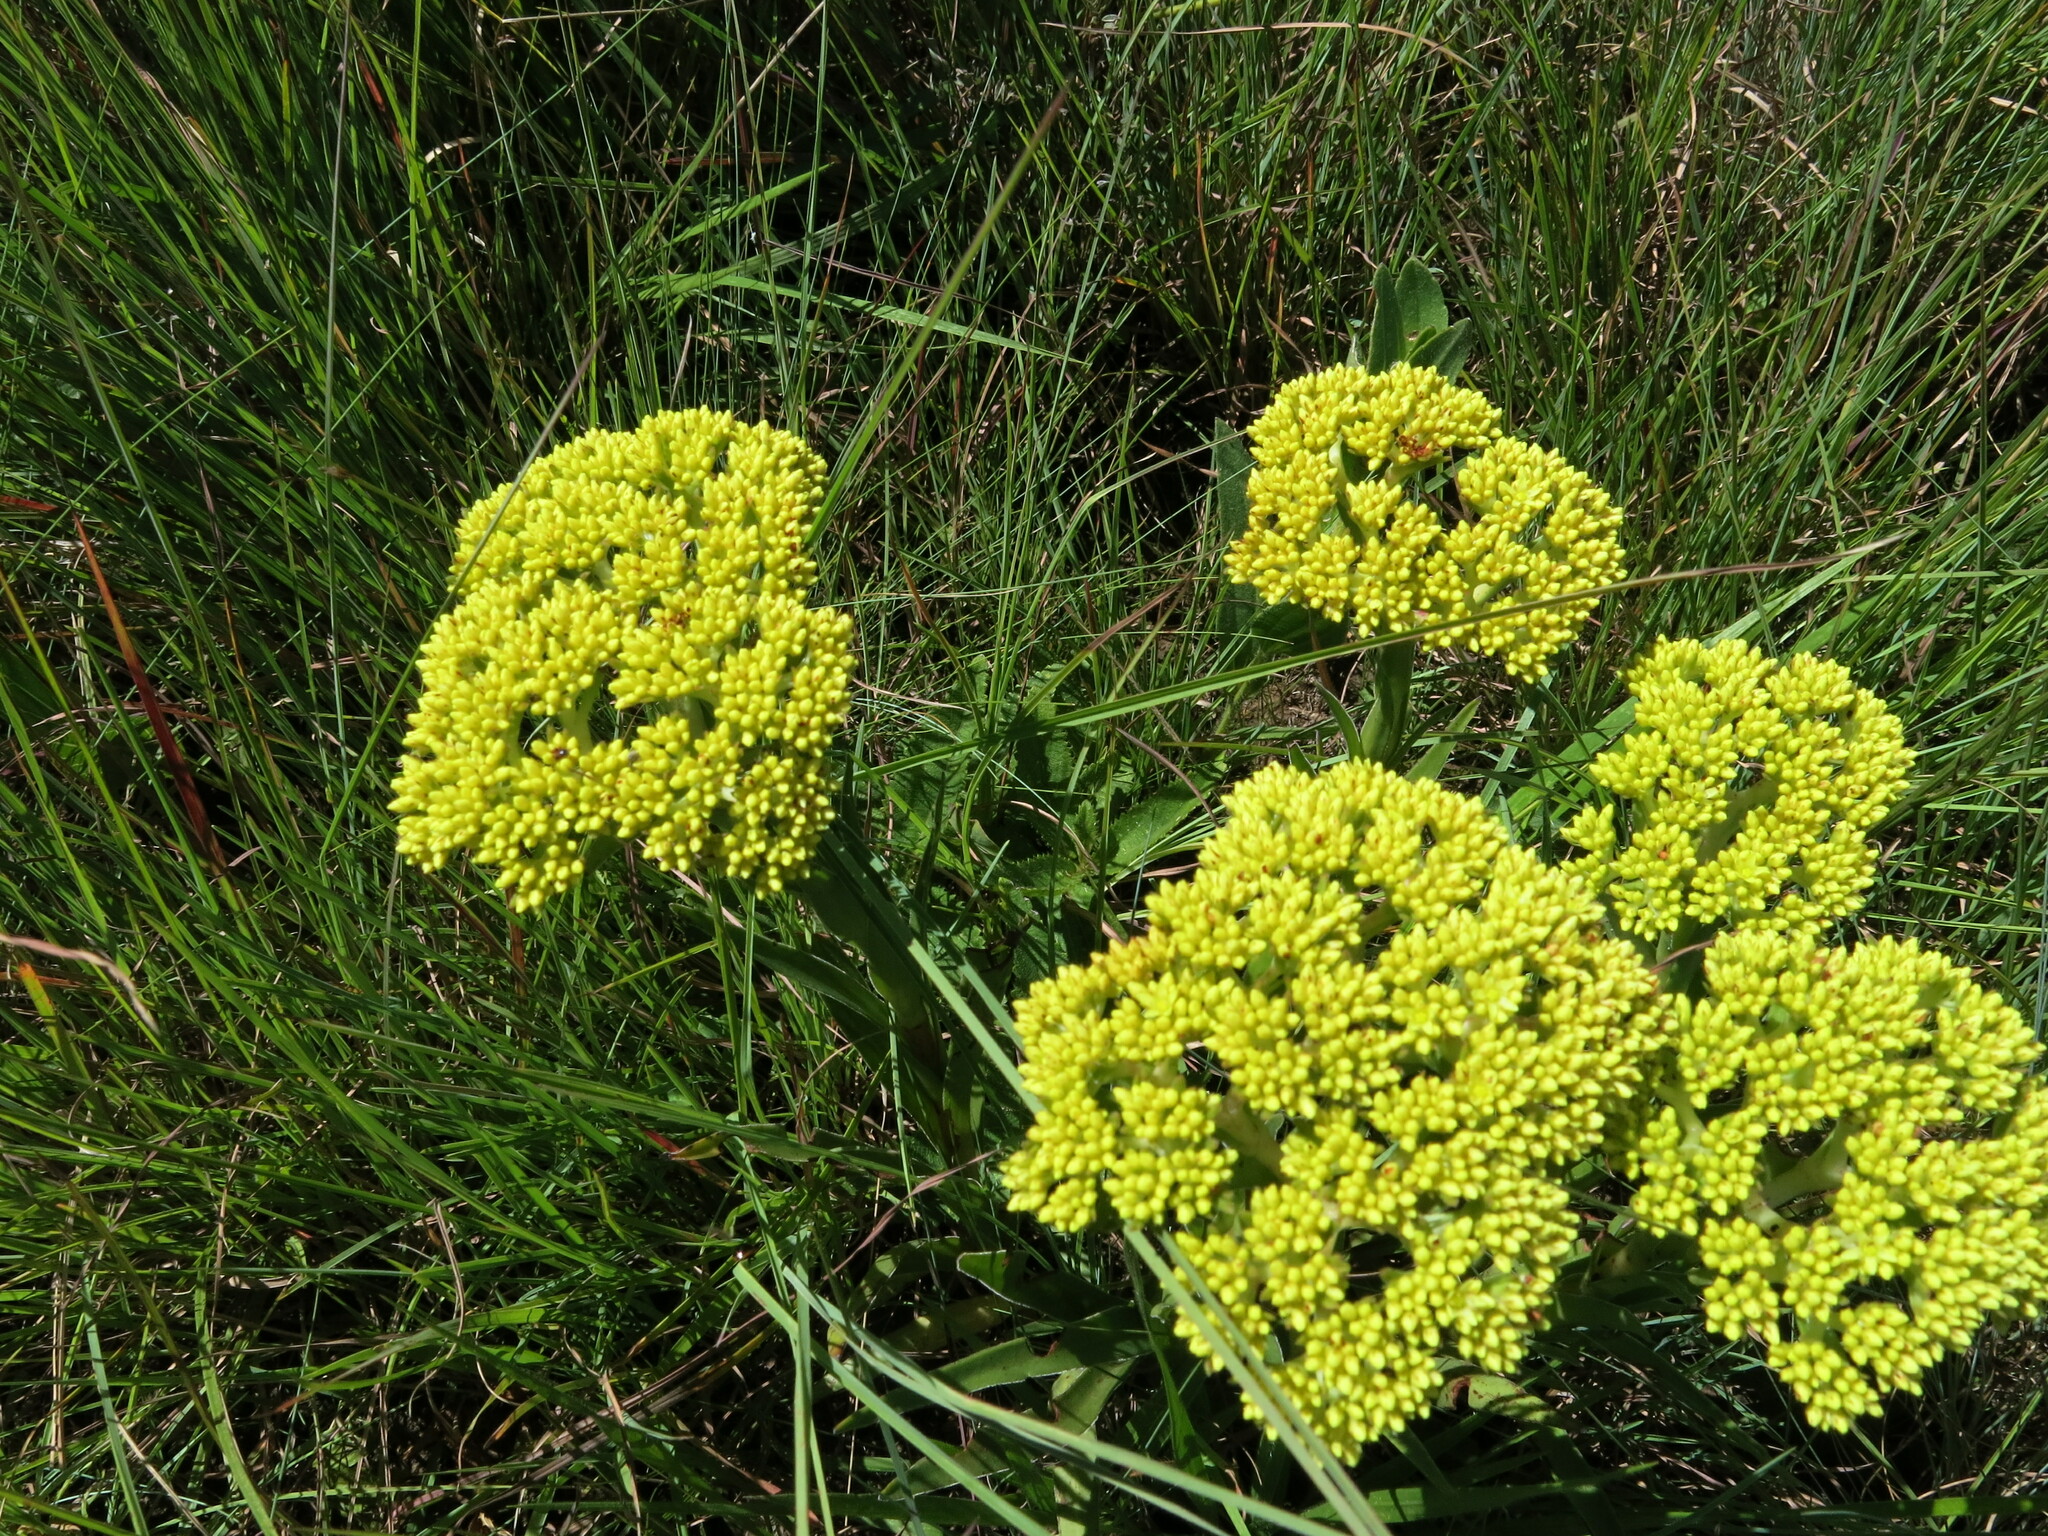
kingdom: Plantae
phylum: Tracheophyta
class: Magnoliopsida
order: Saxifragales
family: Crassulaceae
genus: Crassula
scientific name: Crassula vaginata
